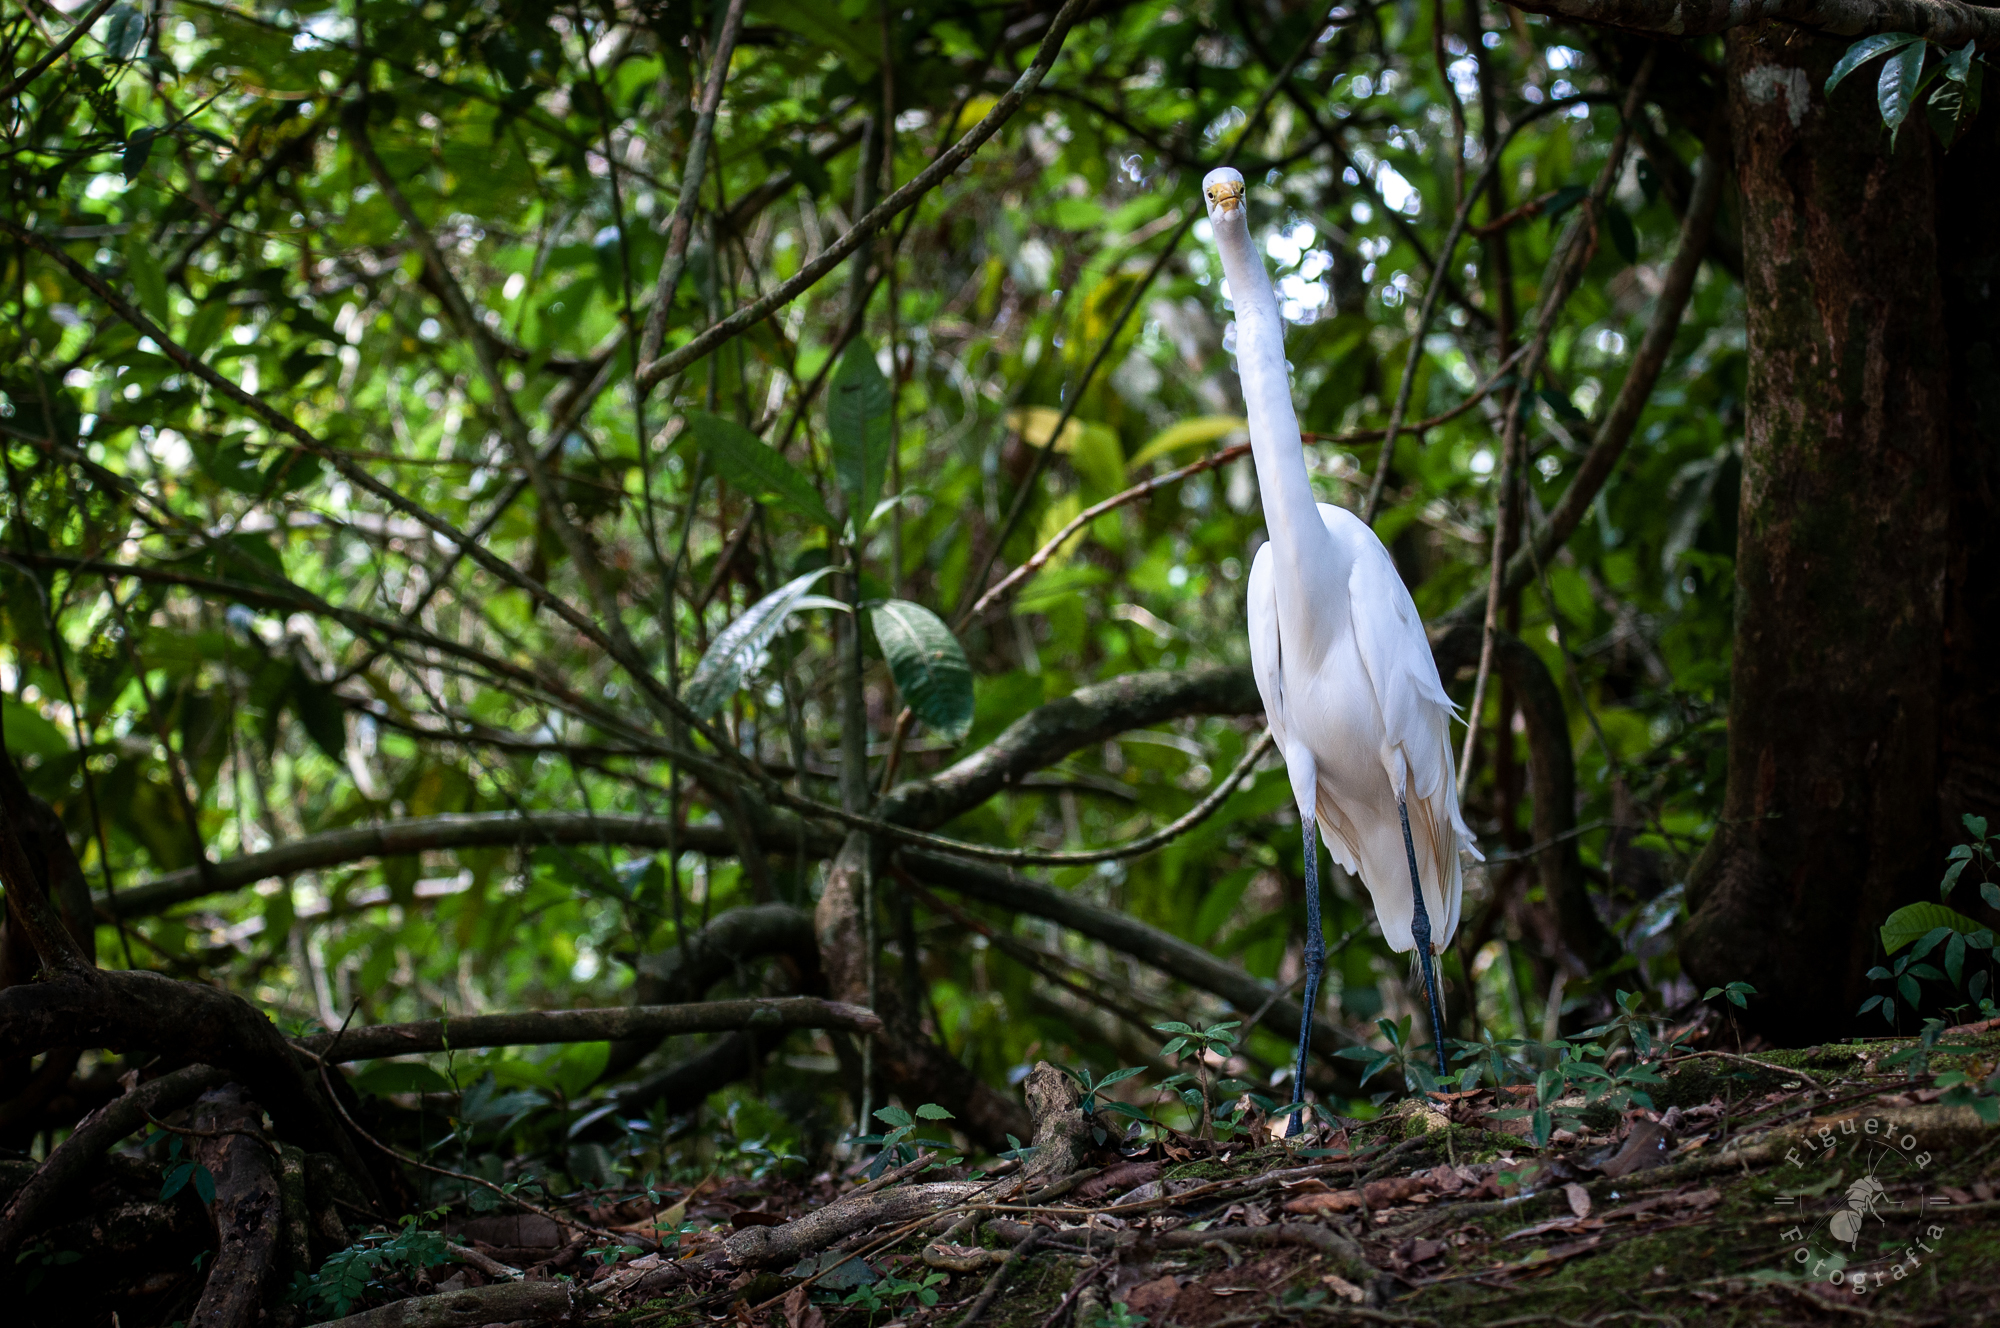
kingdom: Animalia
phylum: Chordata
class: Aves
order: Pelecaniformes
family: Ardeidae
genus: Ardea
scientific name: Ardea alba
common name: Great egret
